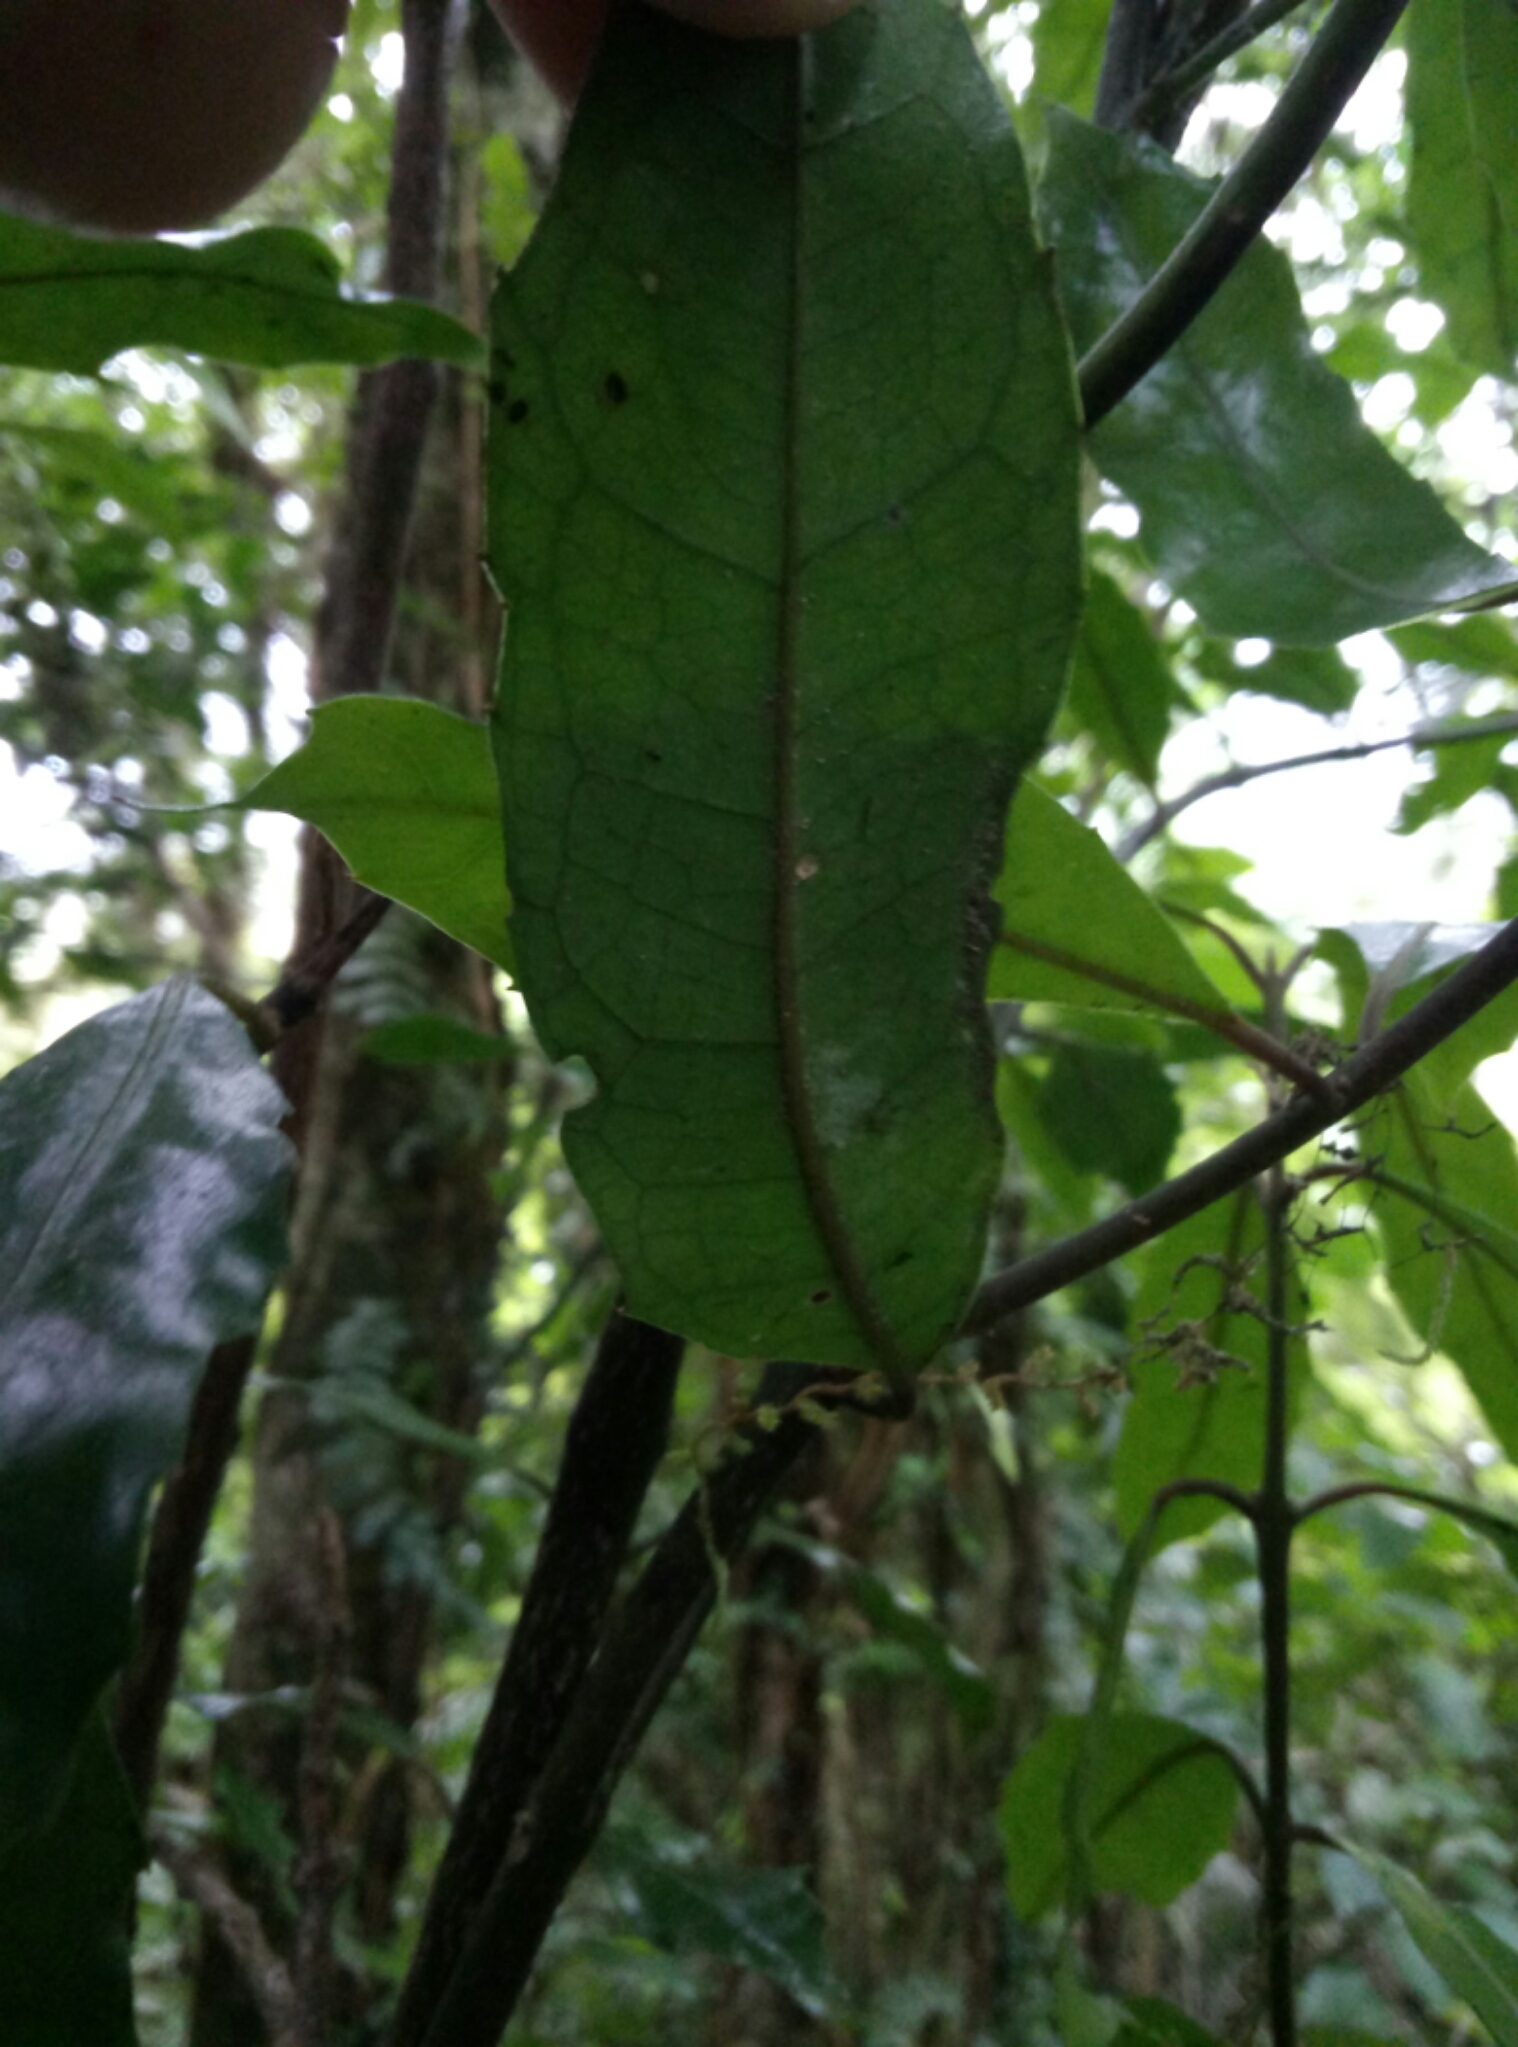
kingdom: Plantae
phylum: Tracheophyta
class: Magnoliopsida
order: Laurales
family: Monimiaceae
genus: Hedycarya
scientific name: Hedycarya arborea
